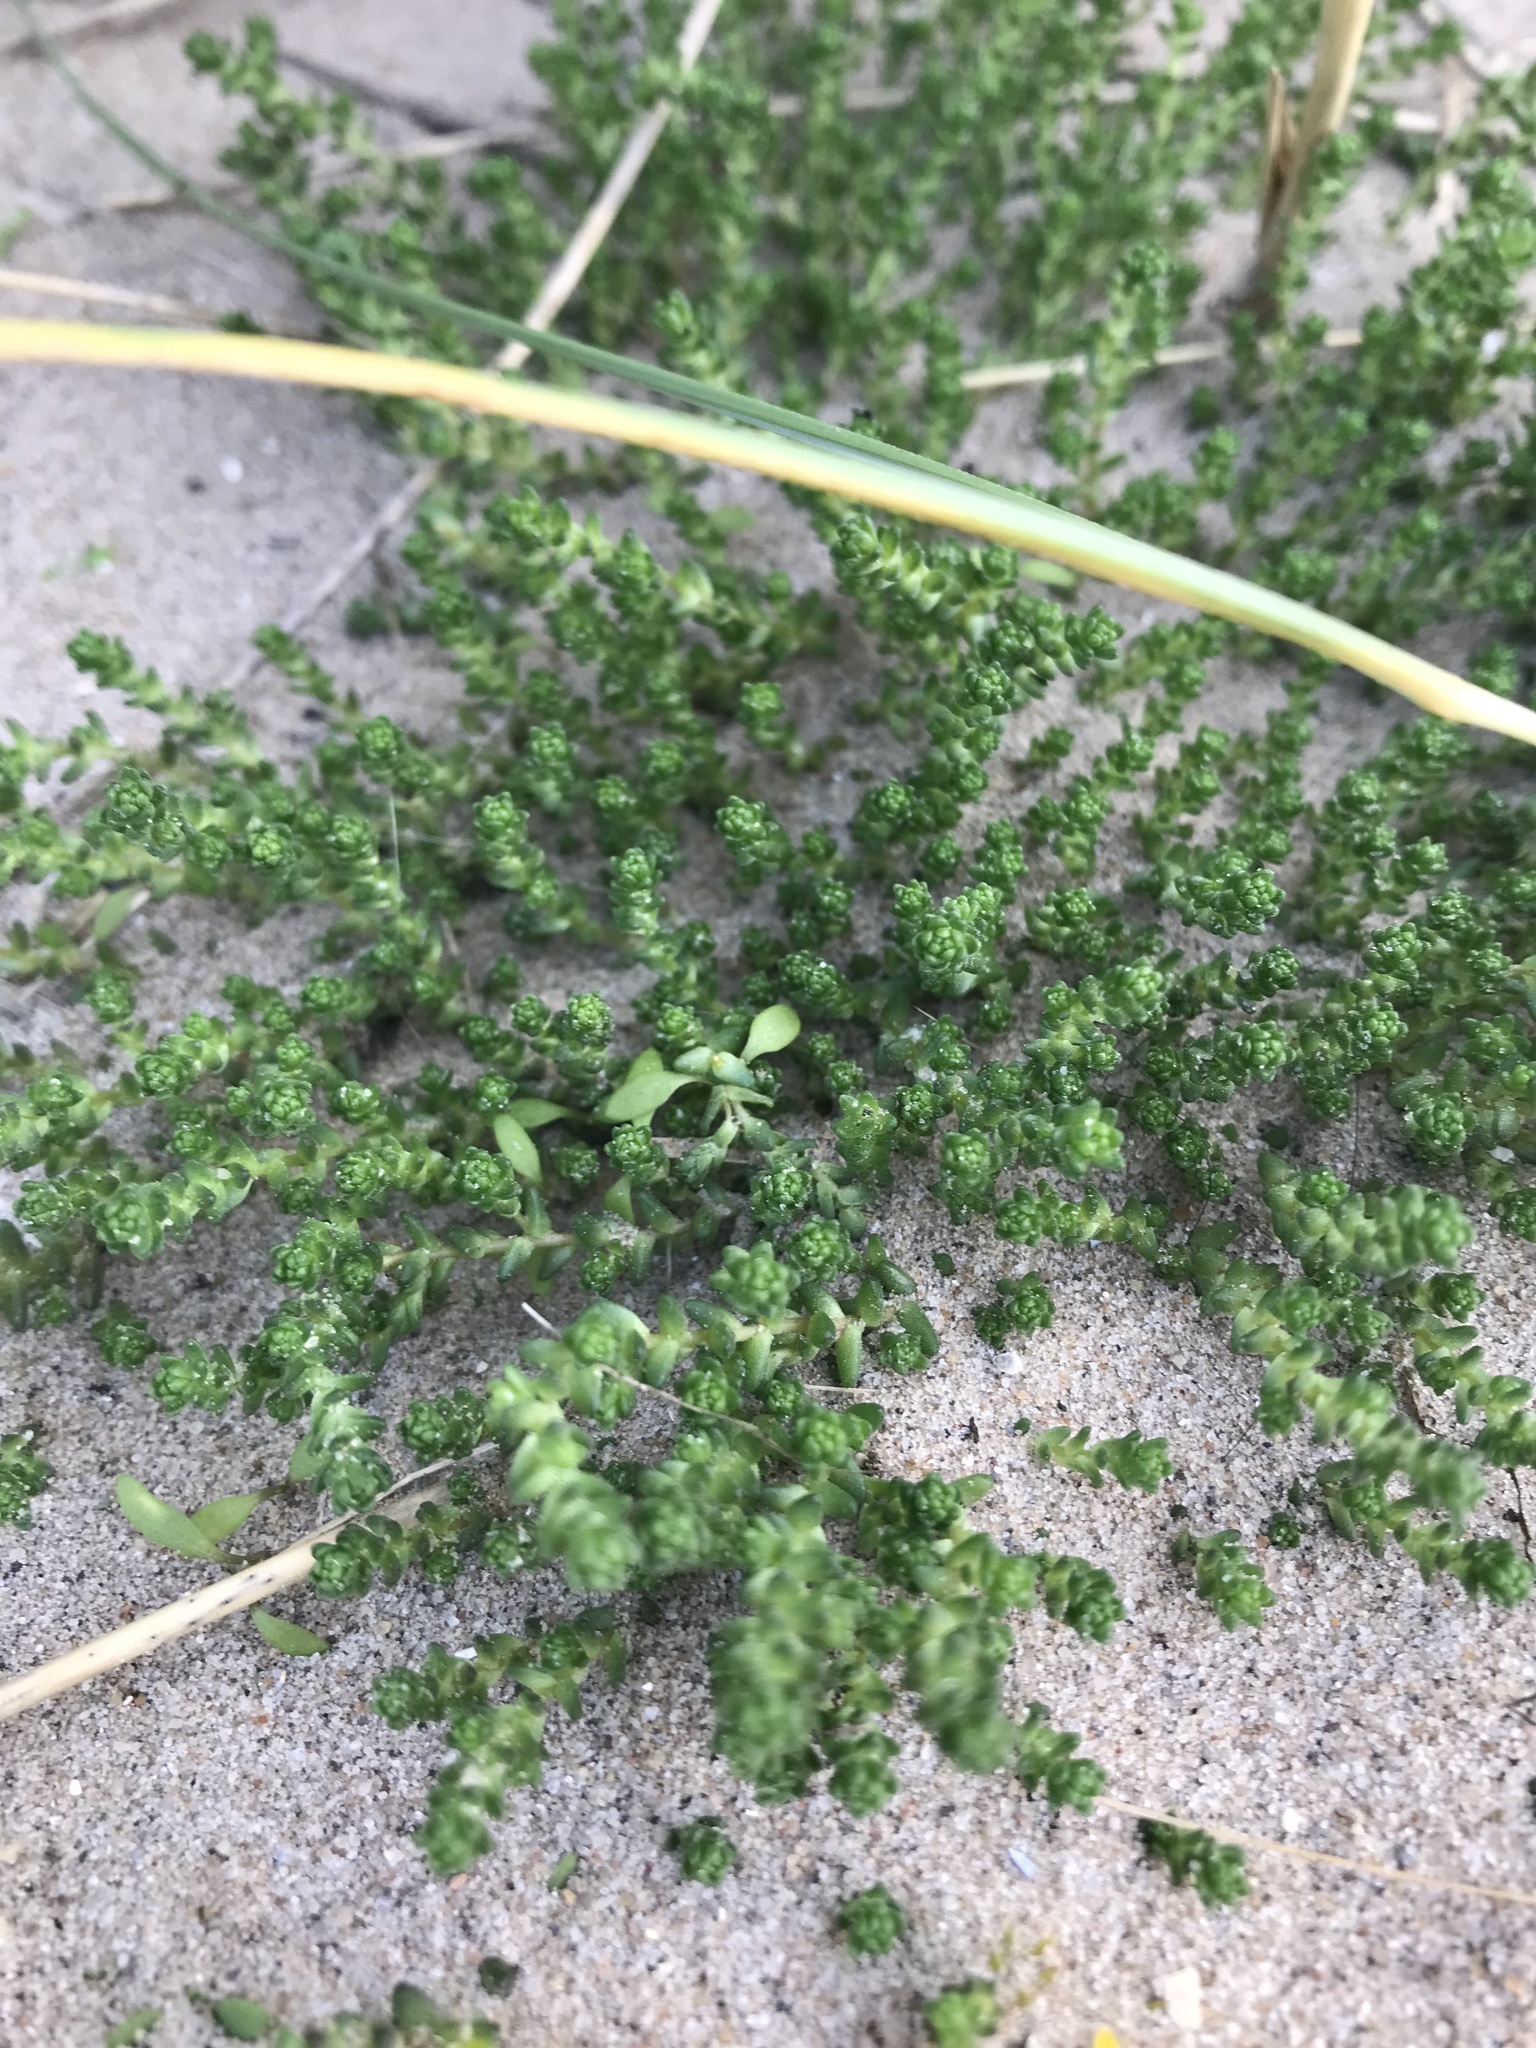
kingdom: Plantae
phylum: Tracheophyta
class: Magnoliopsida
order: Saxifragales
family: Crassulaceae
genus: Sedum
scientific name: Sedum acre
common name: Biting stonecrop
